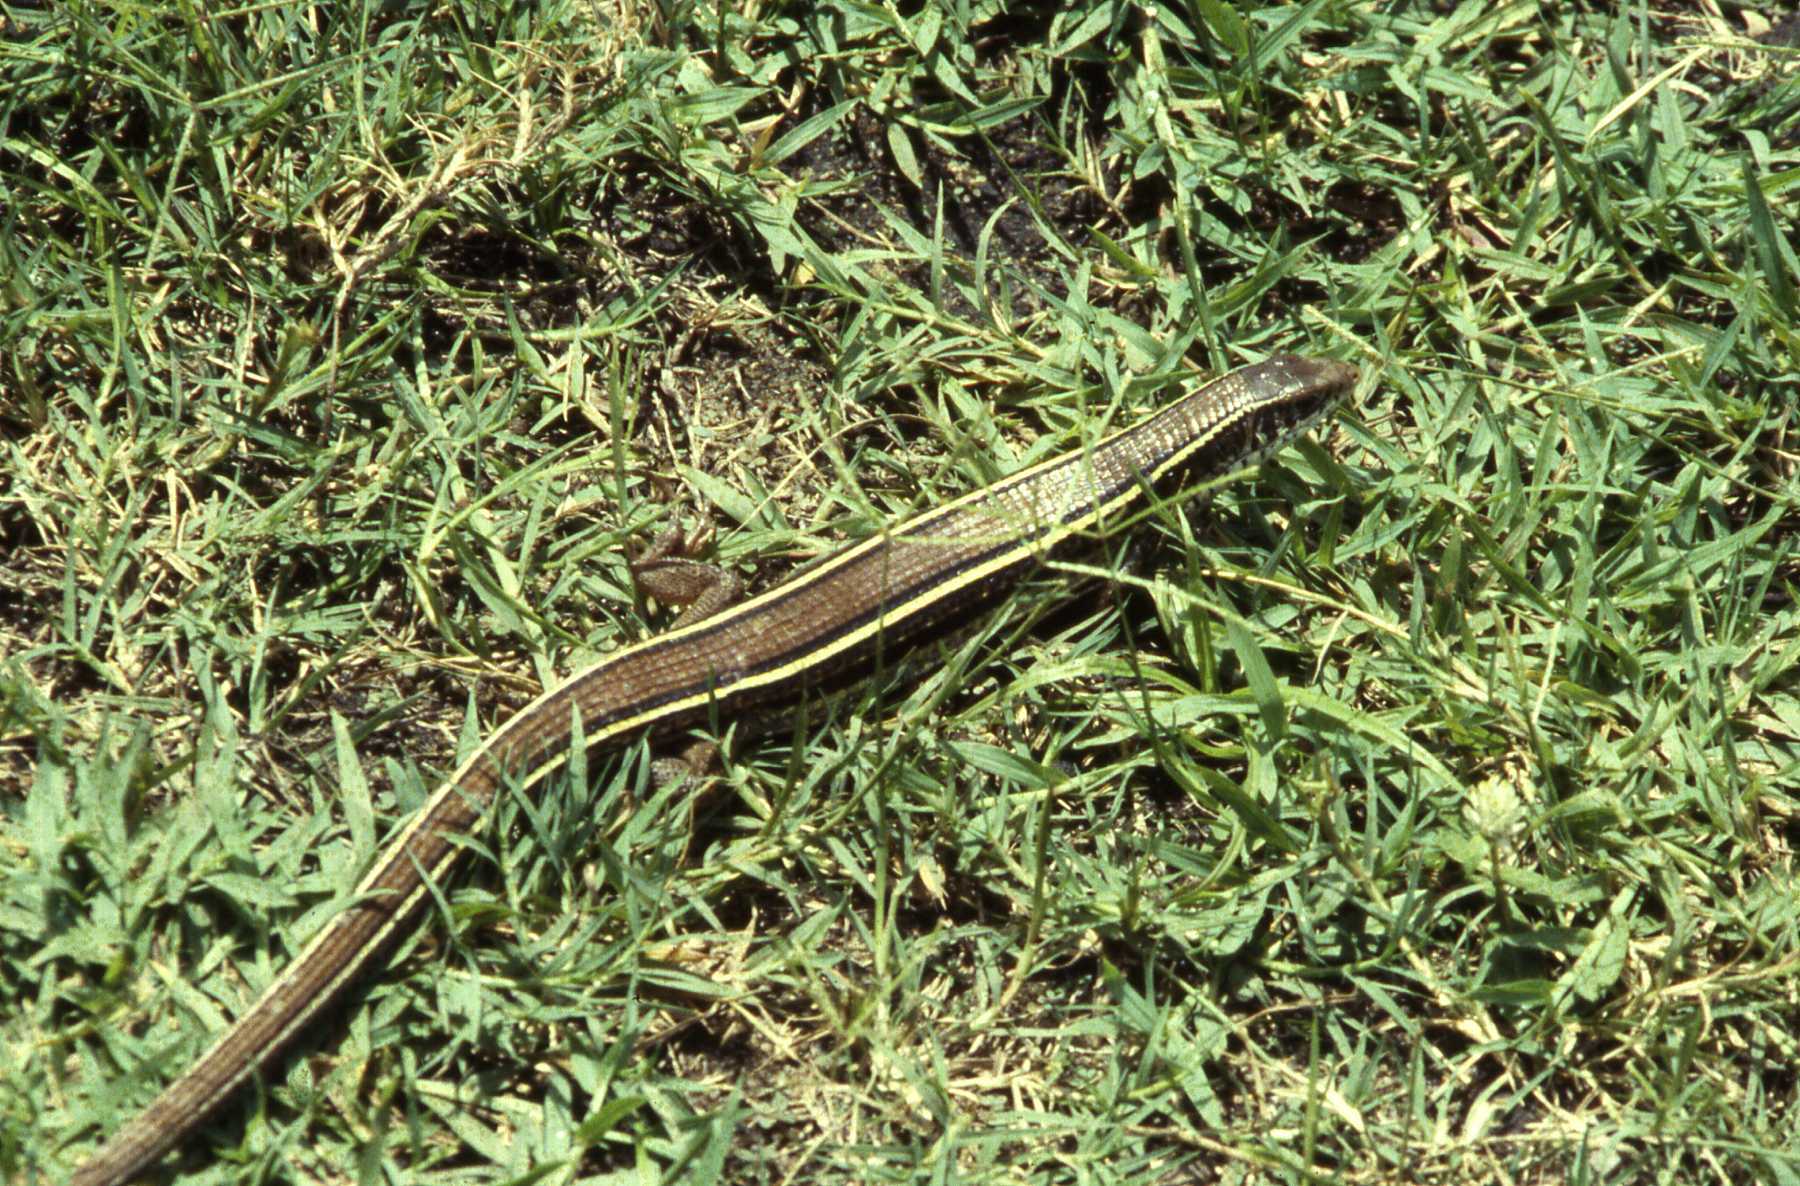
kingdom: Animalia
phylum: Chordata
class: Squamata
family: Gerrhosauridae
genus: Gerrhosaurus
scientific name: Gerrhosaurus flavigularis
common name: Yellow-throated plated lizard
